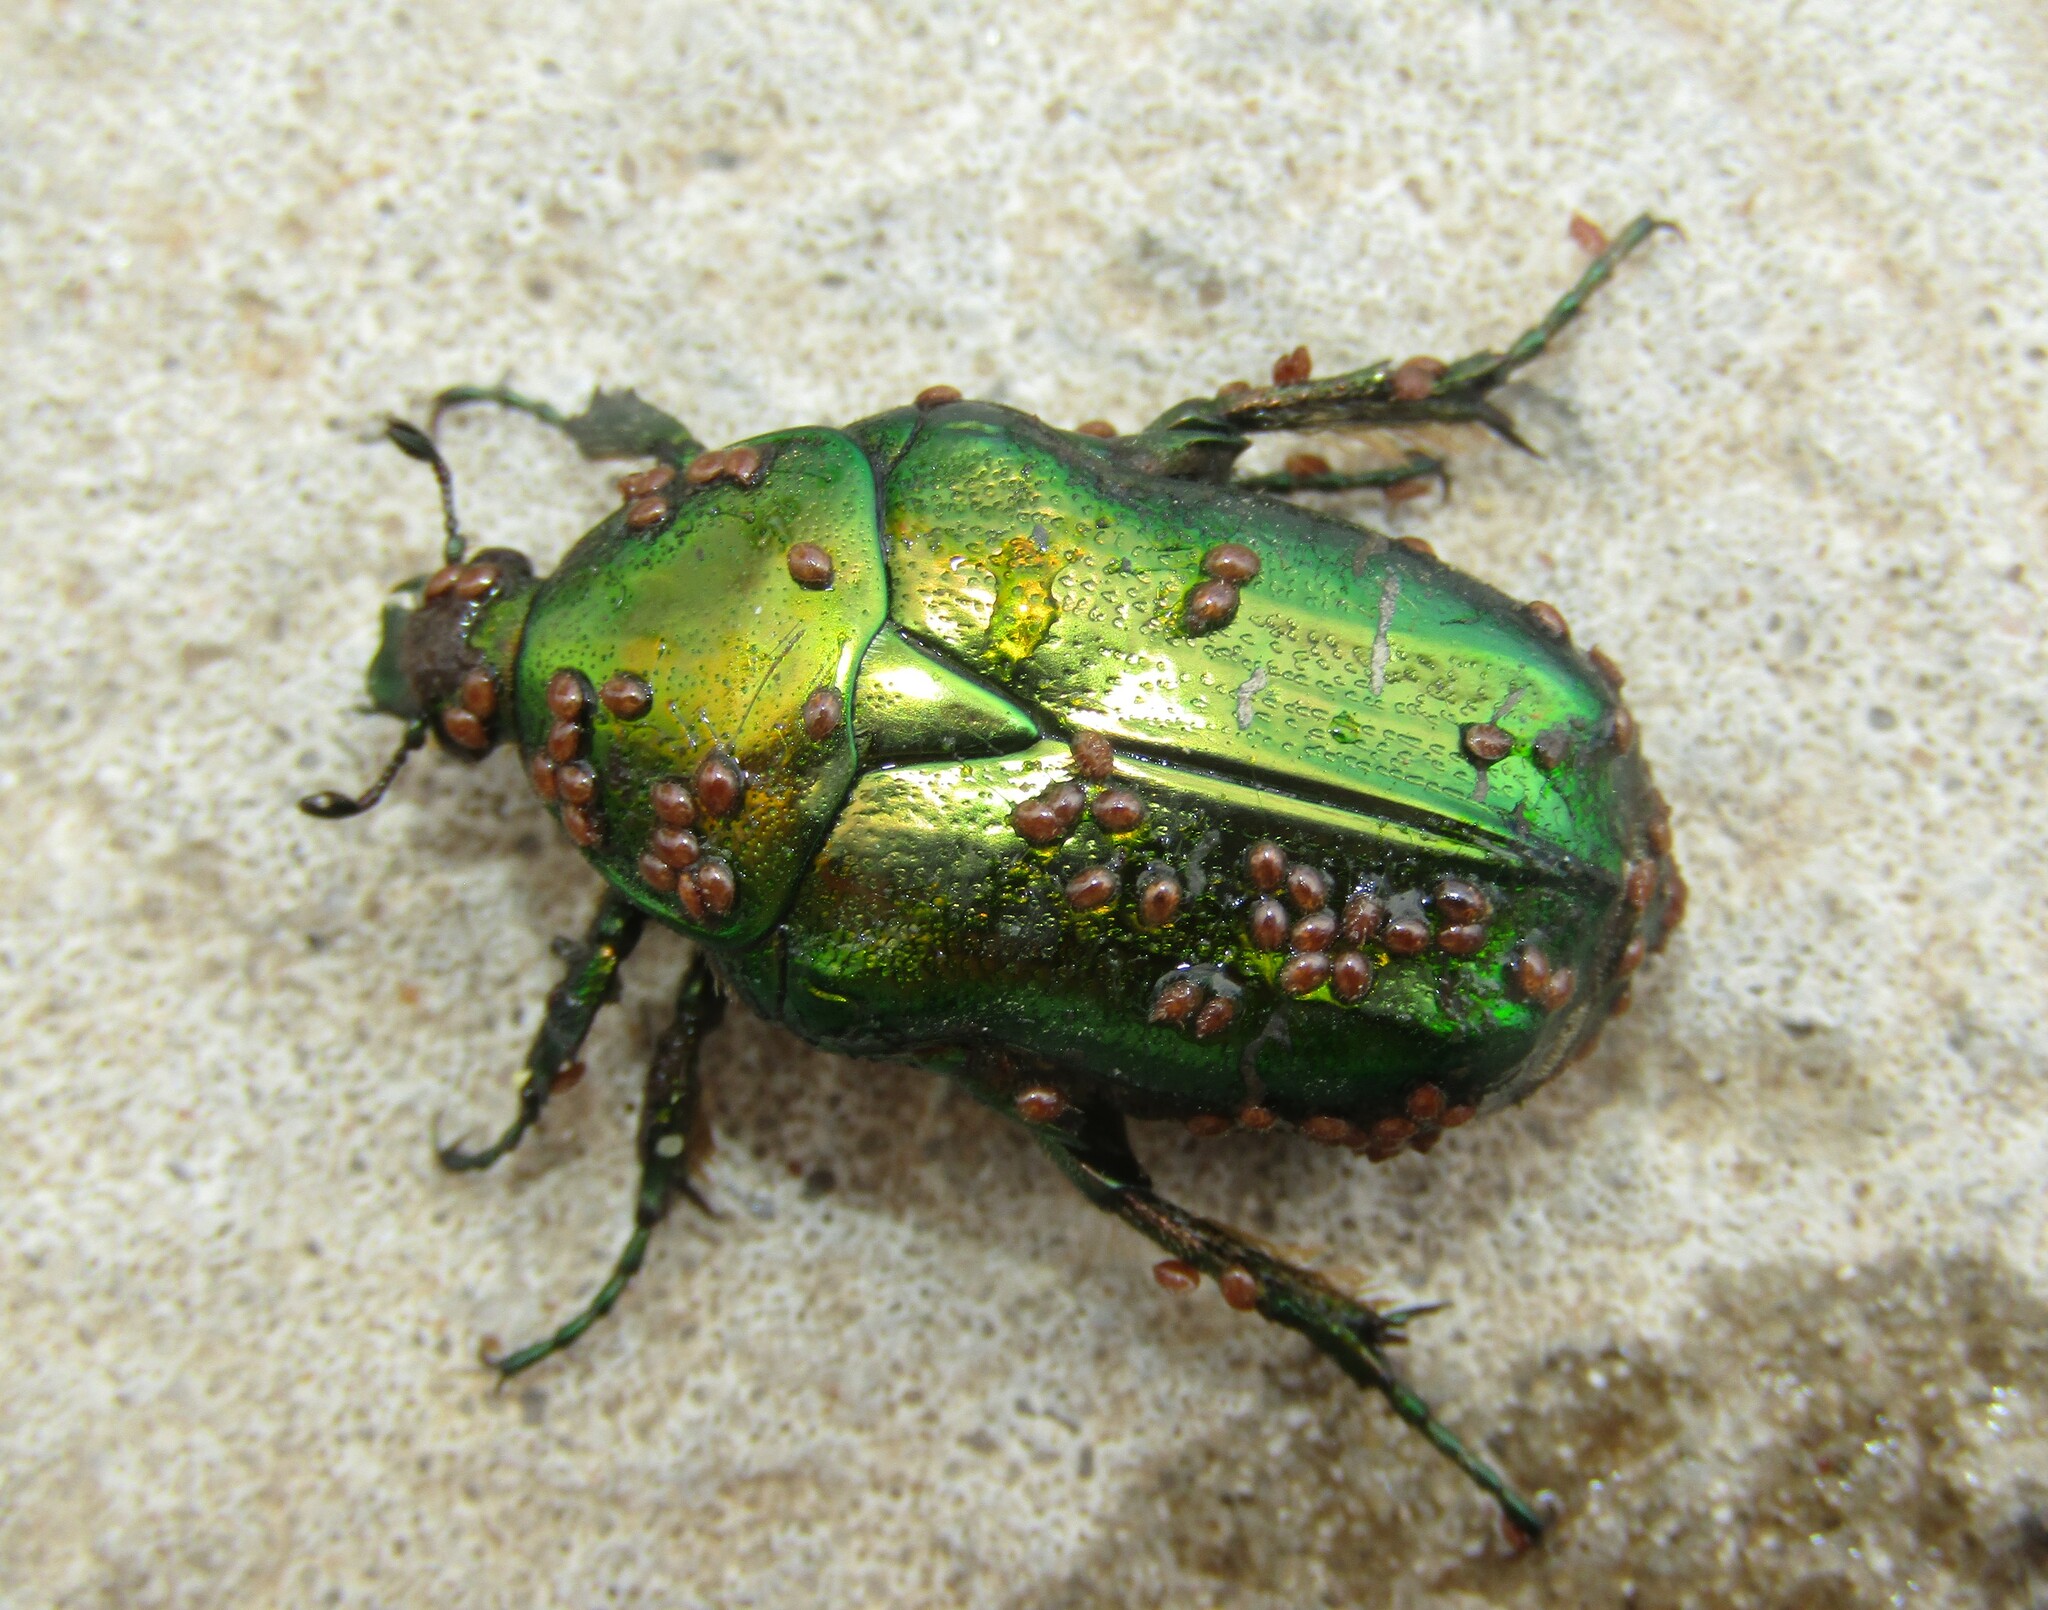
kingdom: Animalia
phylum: Arthropoda
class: Insecta
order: Coleoptera
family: Scarabaeidae
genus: Cetonia
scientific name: Cetonia aurata
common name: Rose chafer
